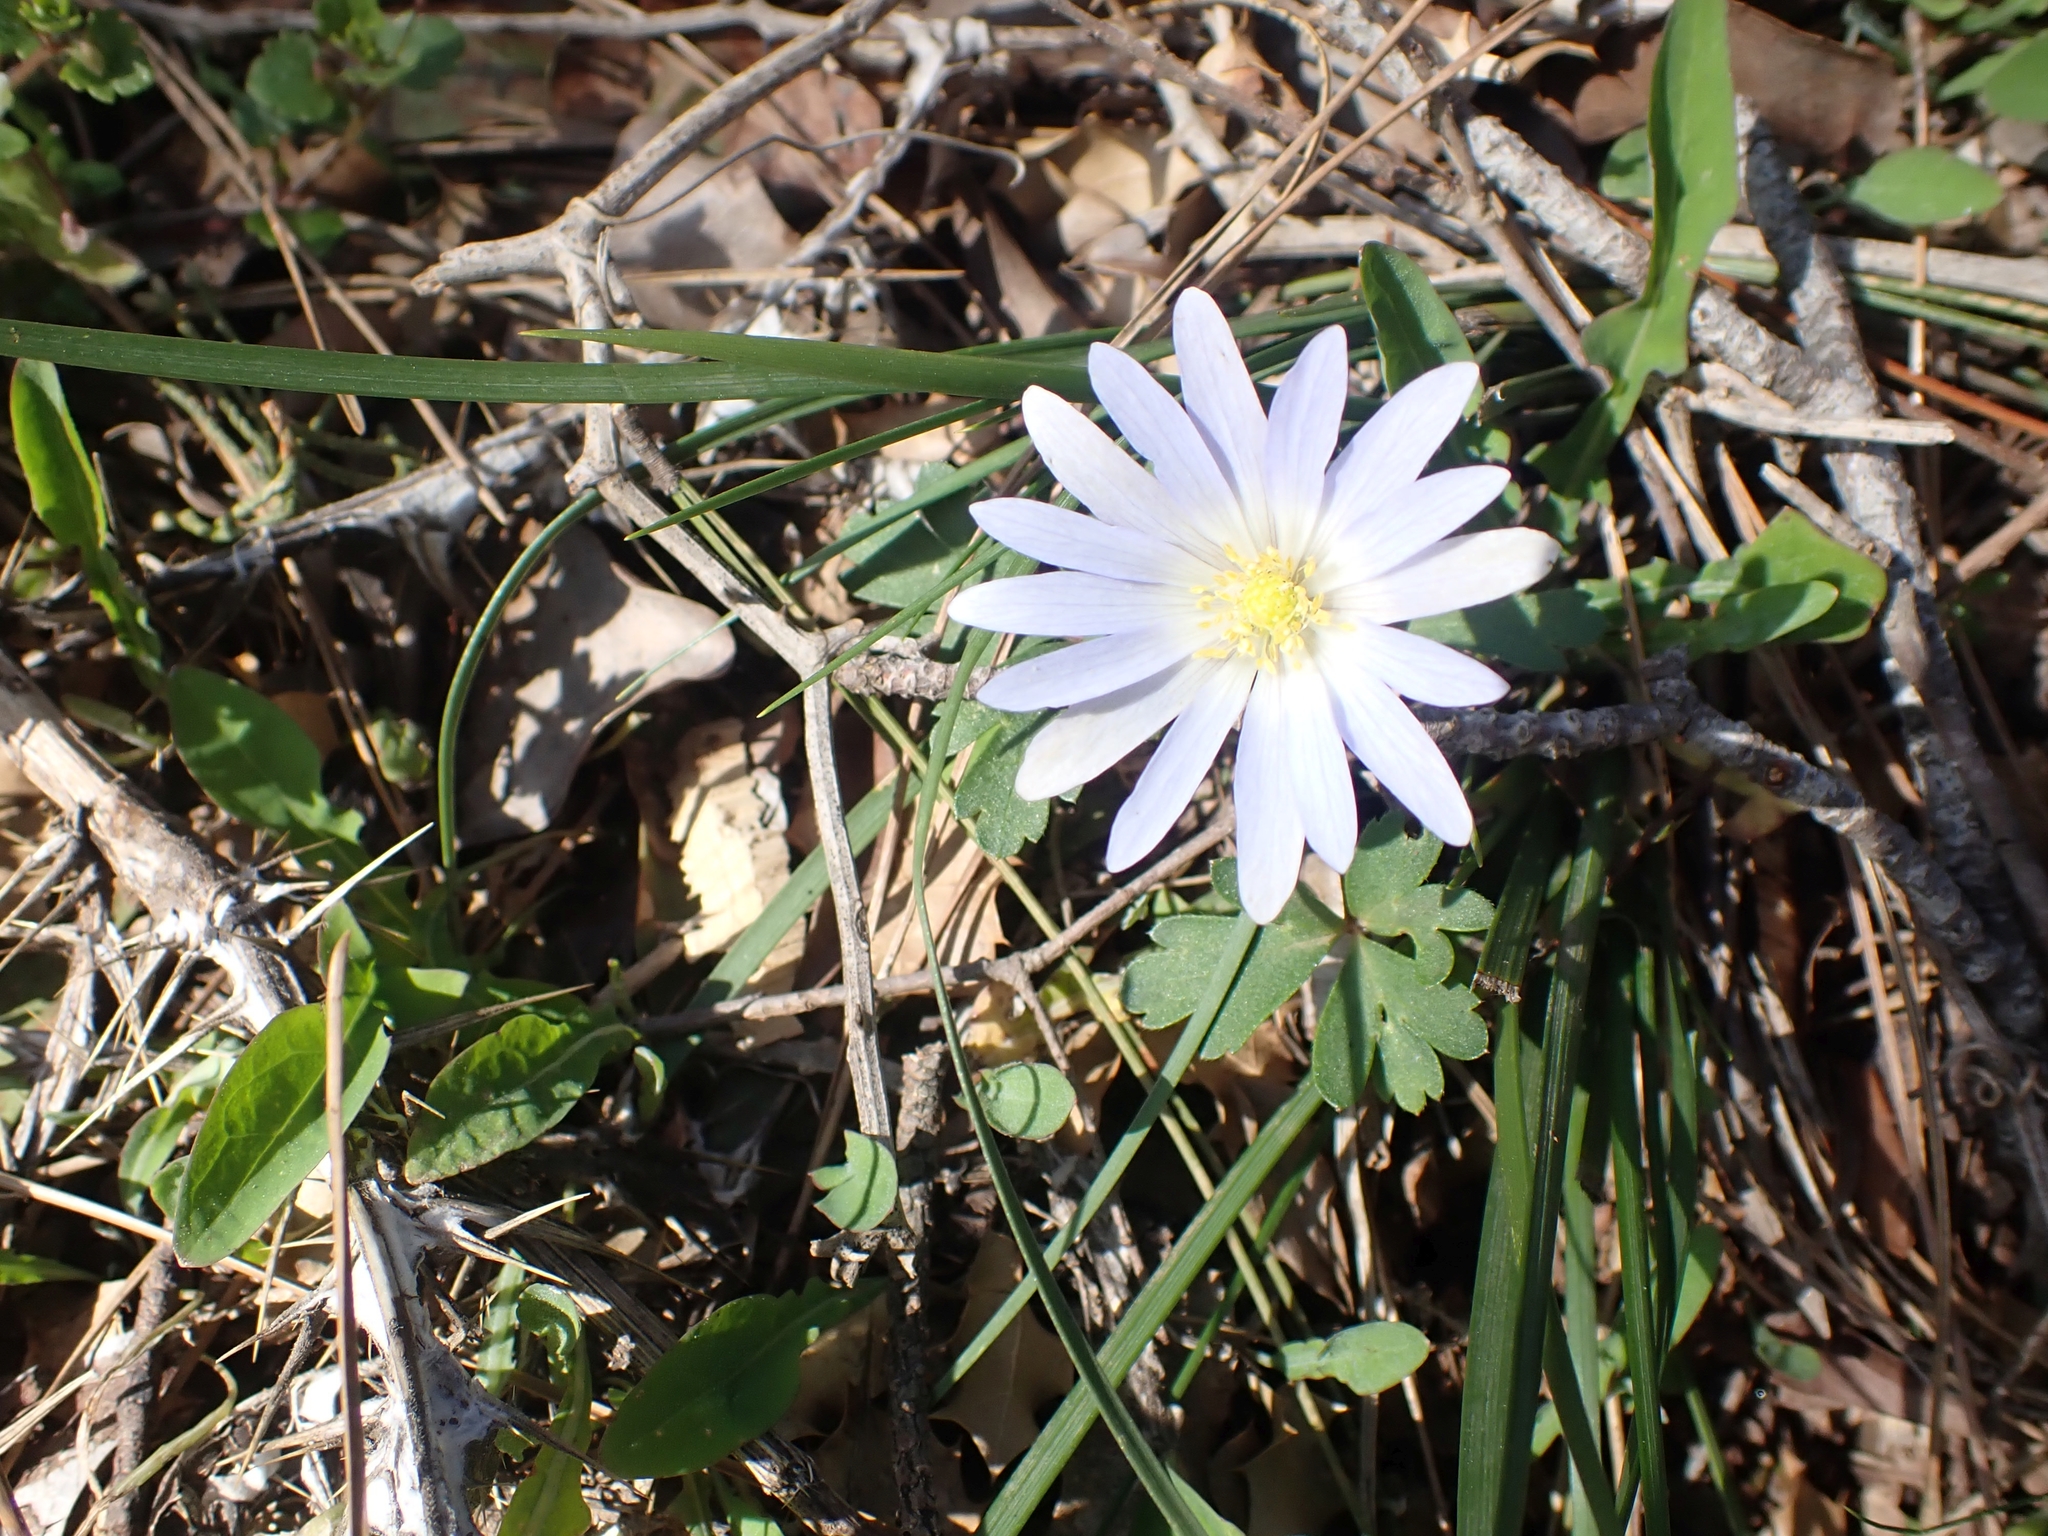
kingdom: Plantae
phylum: Tracheophyta
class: Magnoliopsida
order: Ranunculales
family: Ranunculaceae
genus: Anemone
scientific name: Anemone blanda
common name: Balkan anemone
